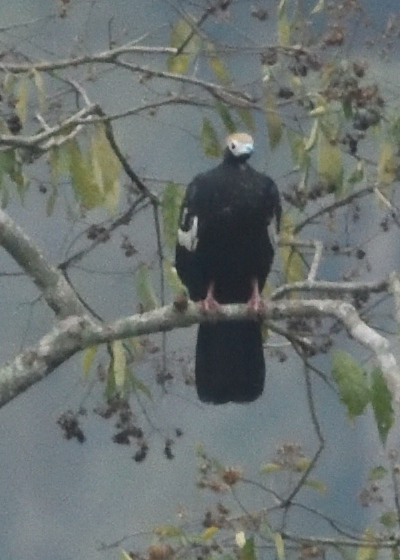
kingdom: Animalia
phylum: Chordata
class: Aves
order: Galliformes
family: Cracidae
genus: Pipile
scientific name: Pipile cumanensis
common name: Blue-throated piping-guan
